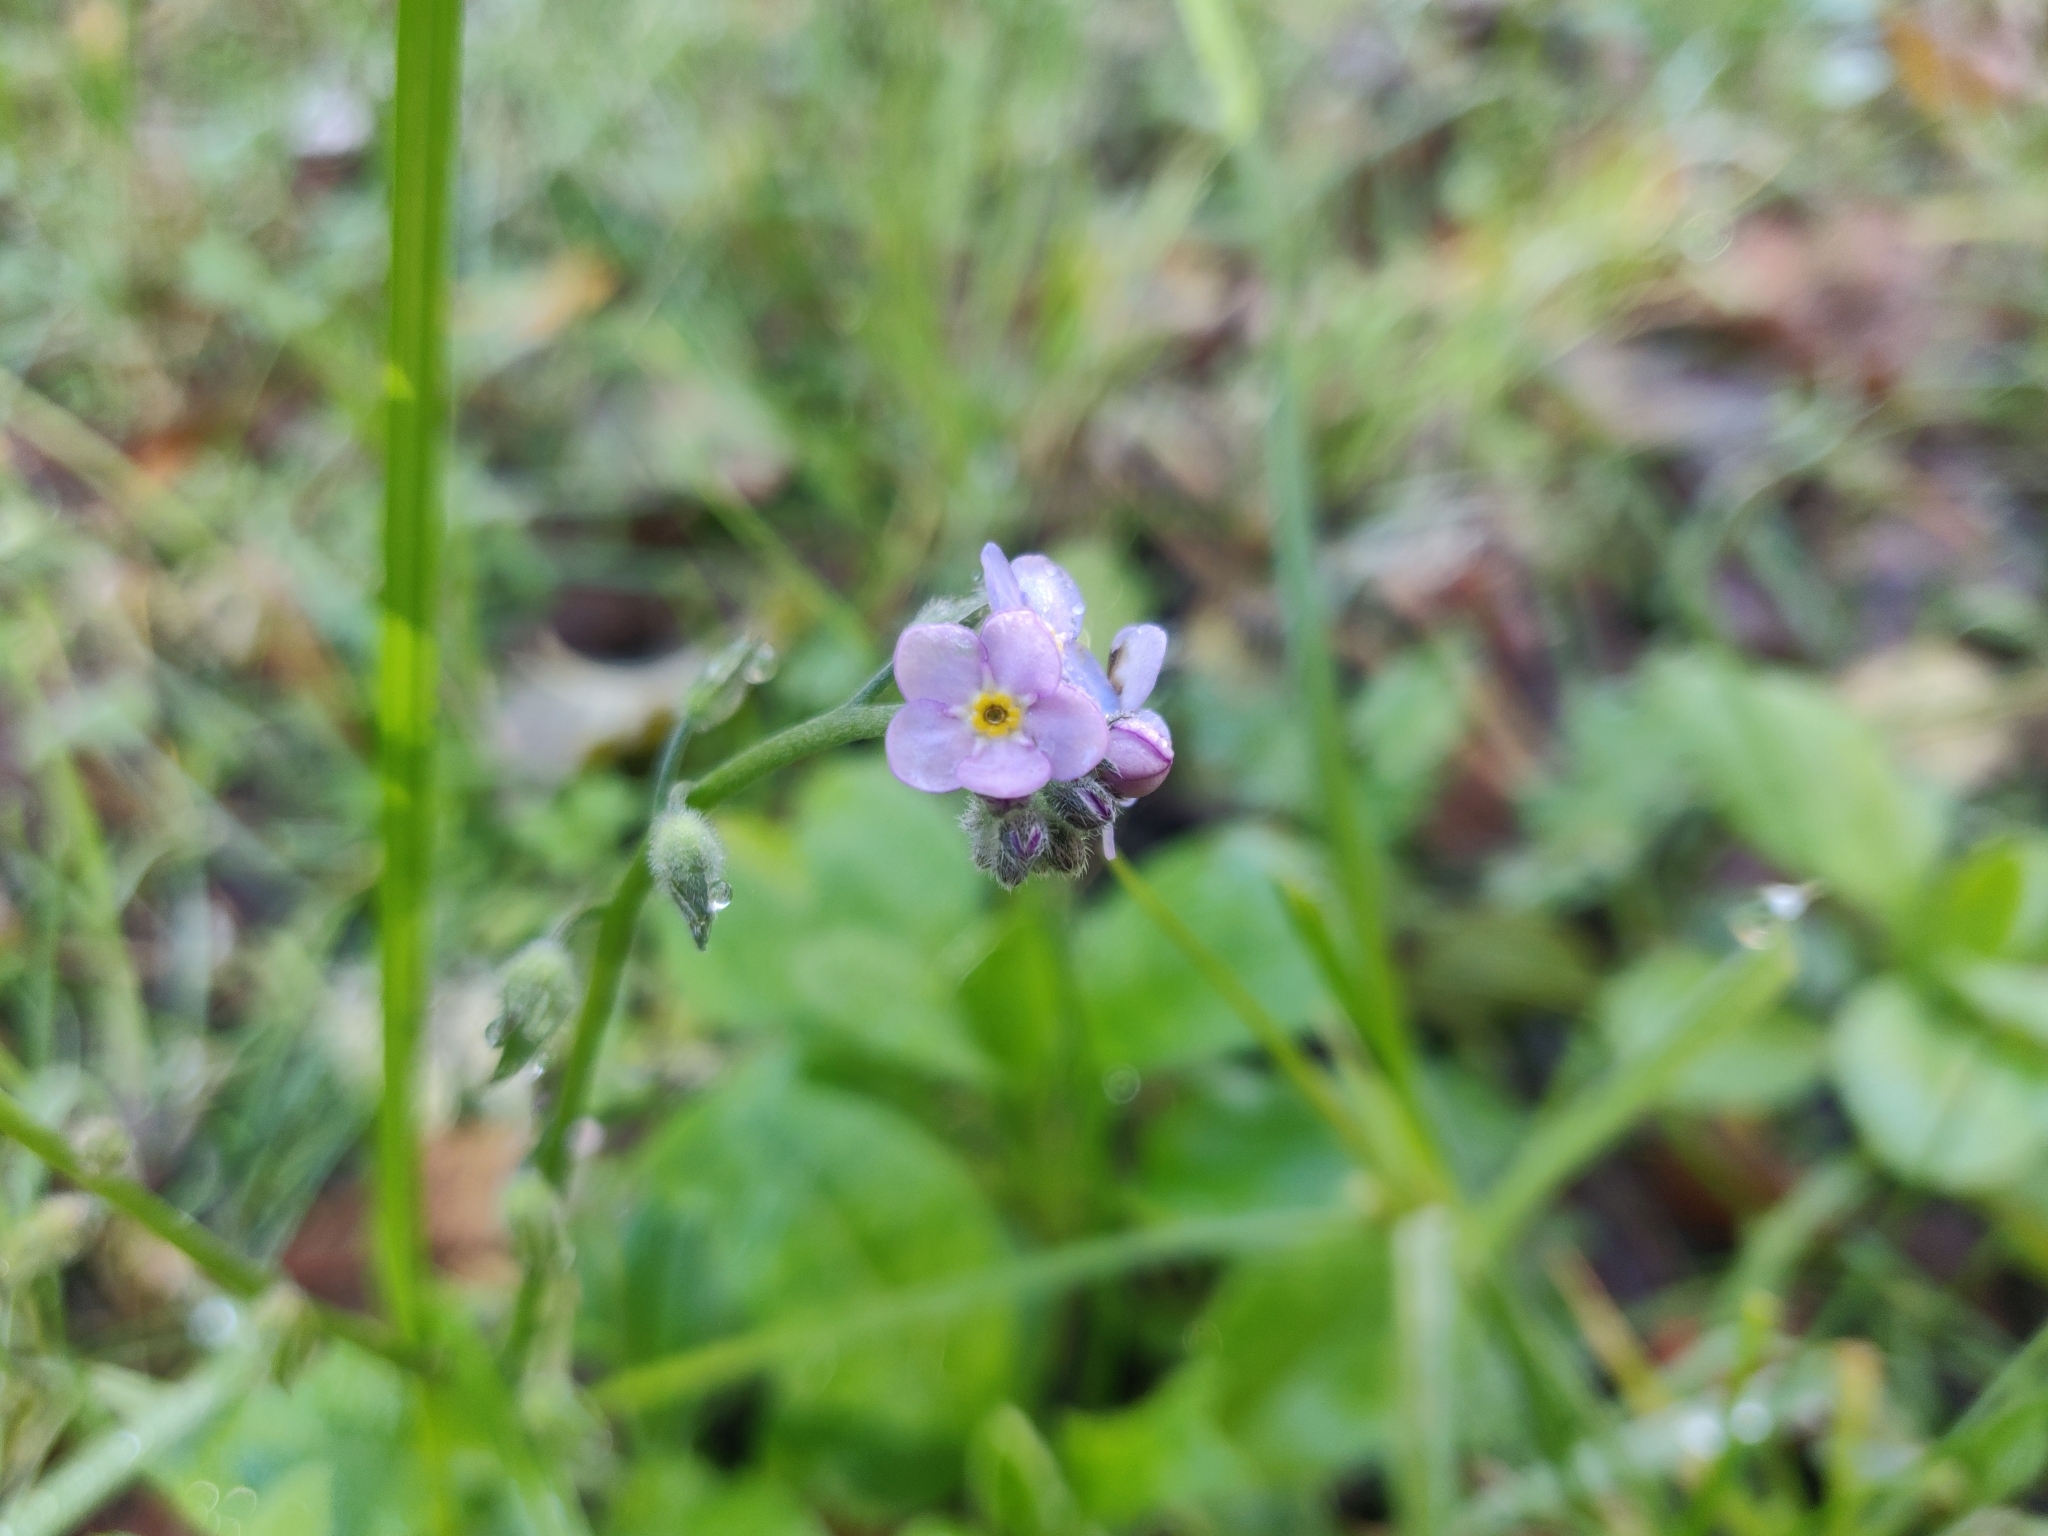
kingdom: Plantae
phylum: Tracheophyta
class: Magnoliopsida
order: Boraginales
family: Boraginaceae
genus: Myosotis
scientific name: Myosotis latifolia
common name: Broadleaf forget-me-not
